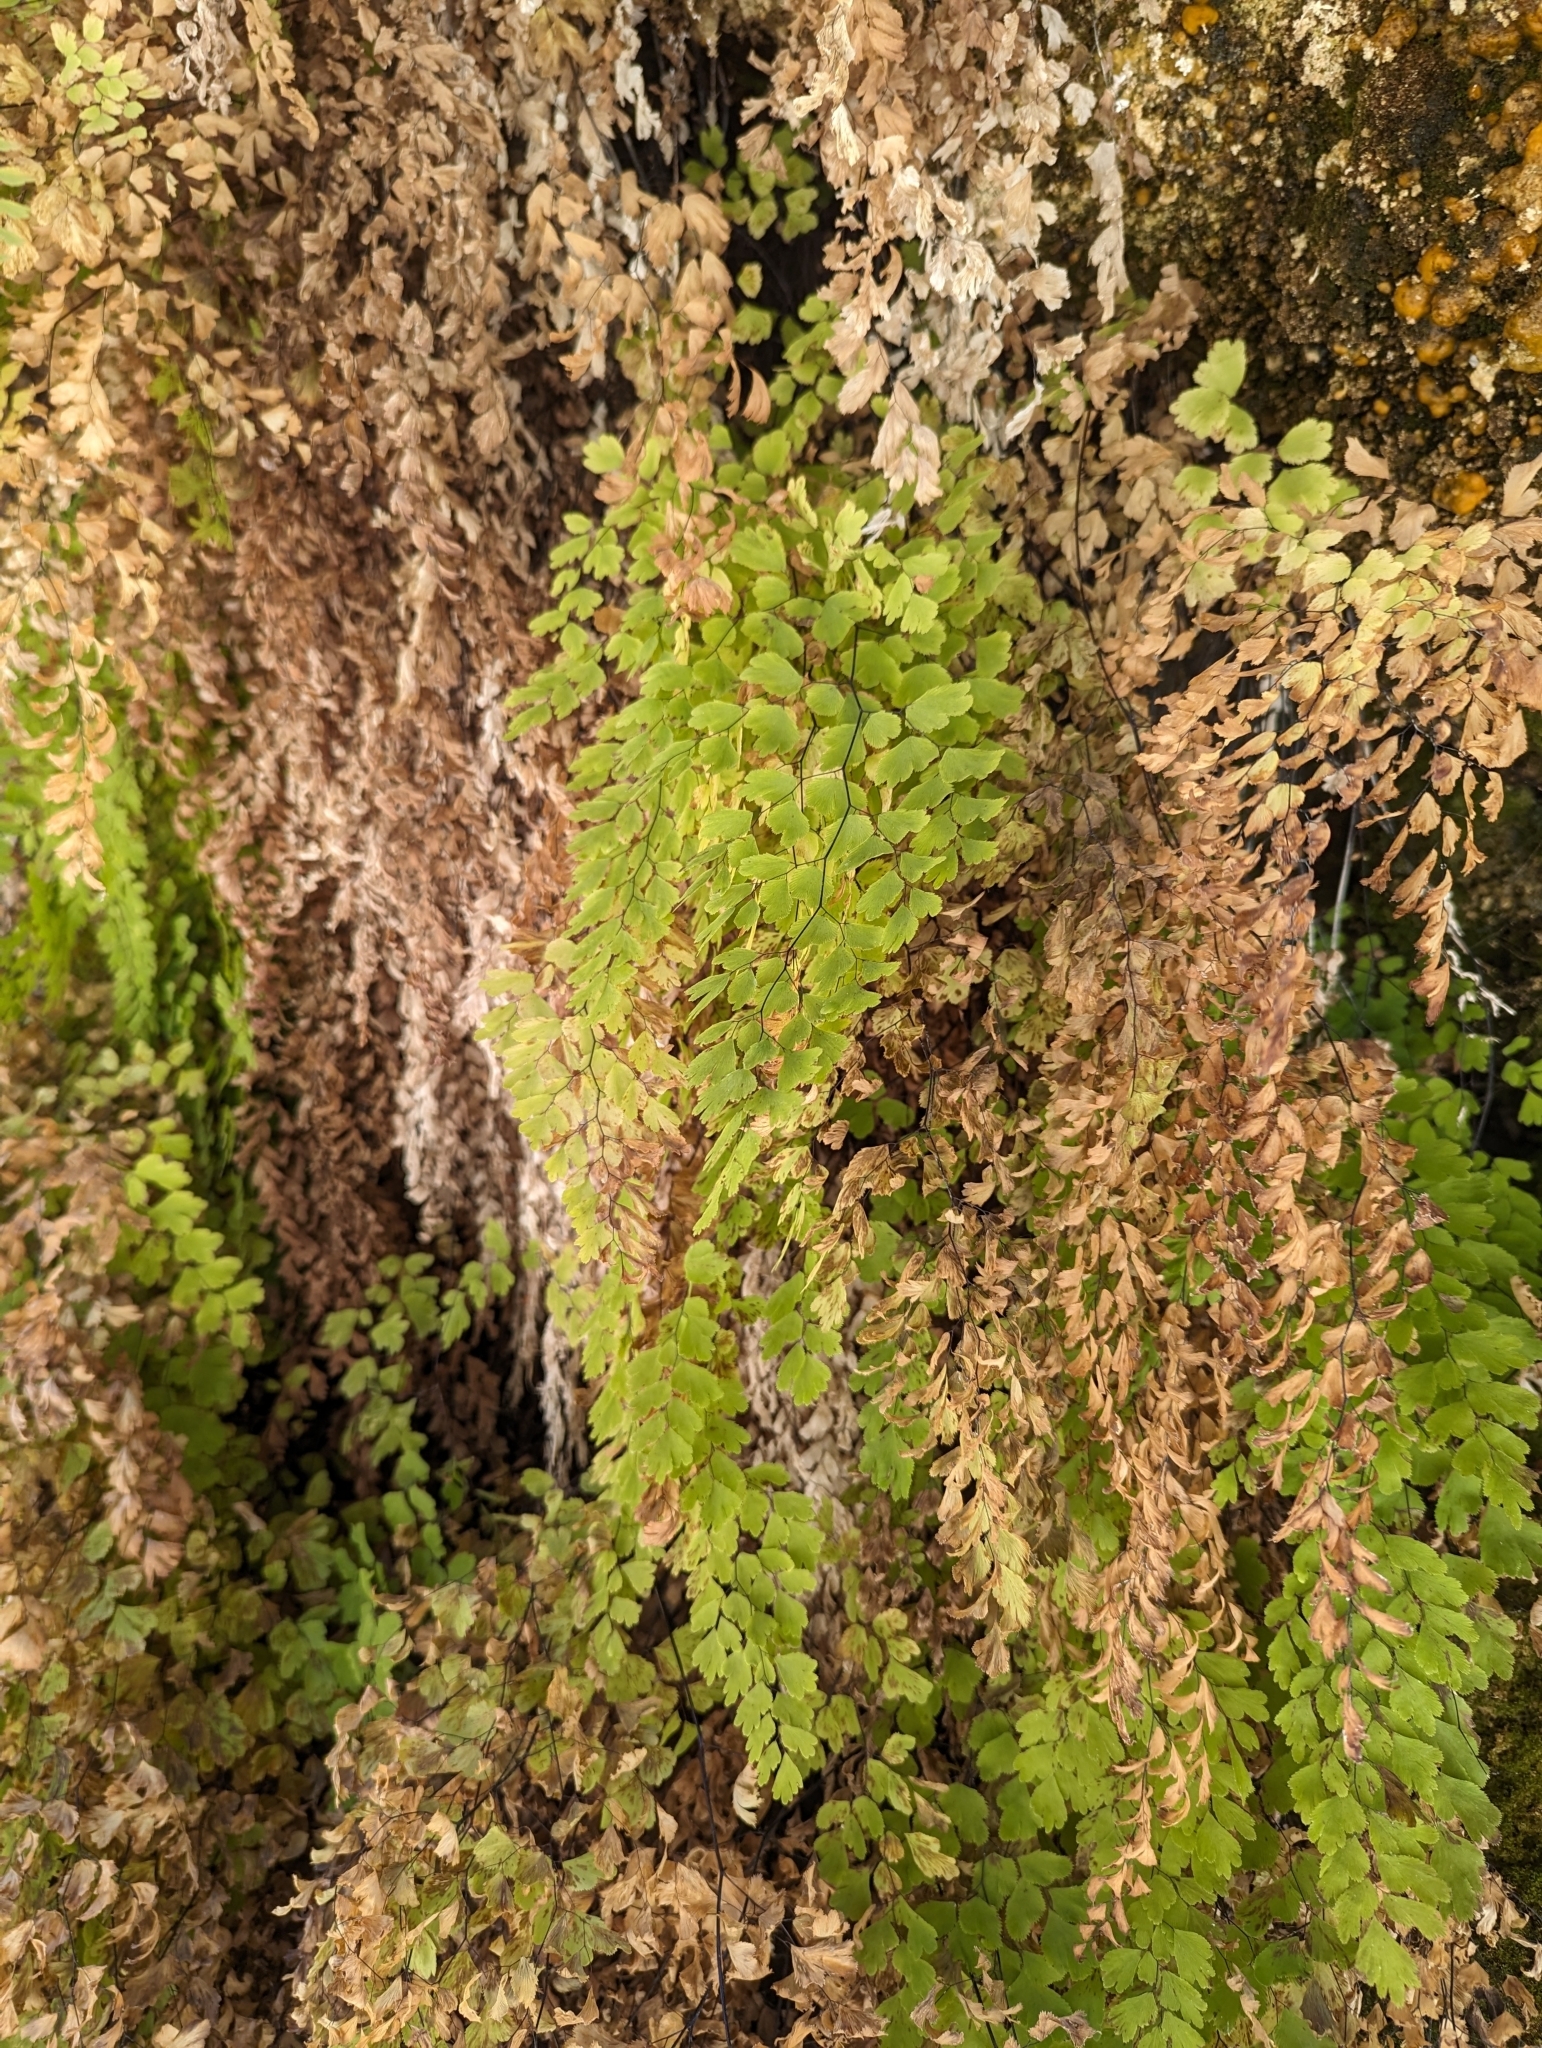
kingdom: Plantae
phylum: Tracheophyta
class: Polypodiopsida
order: Polypodiales
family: Pteridaceae
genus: Adiantum
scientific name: Adiantum capillus-veneris
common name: Maidenhair fern
